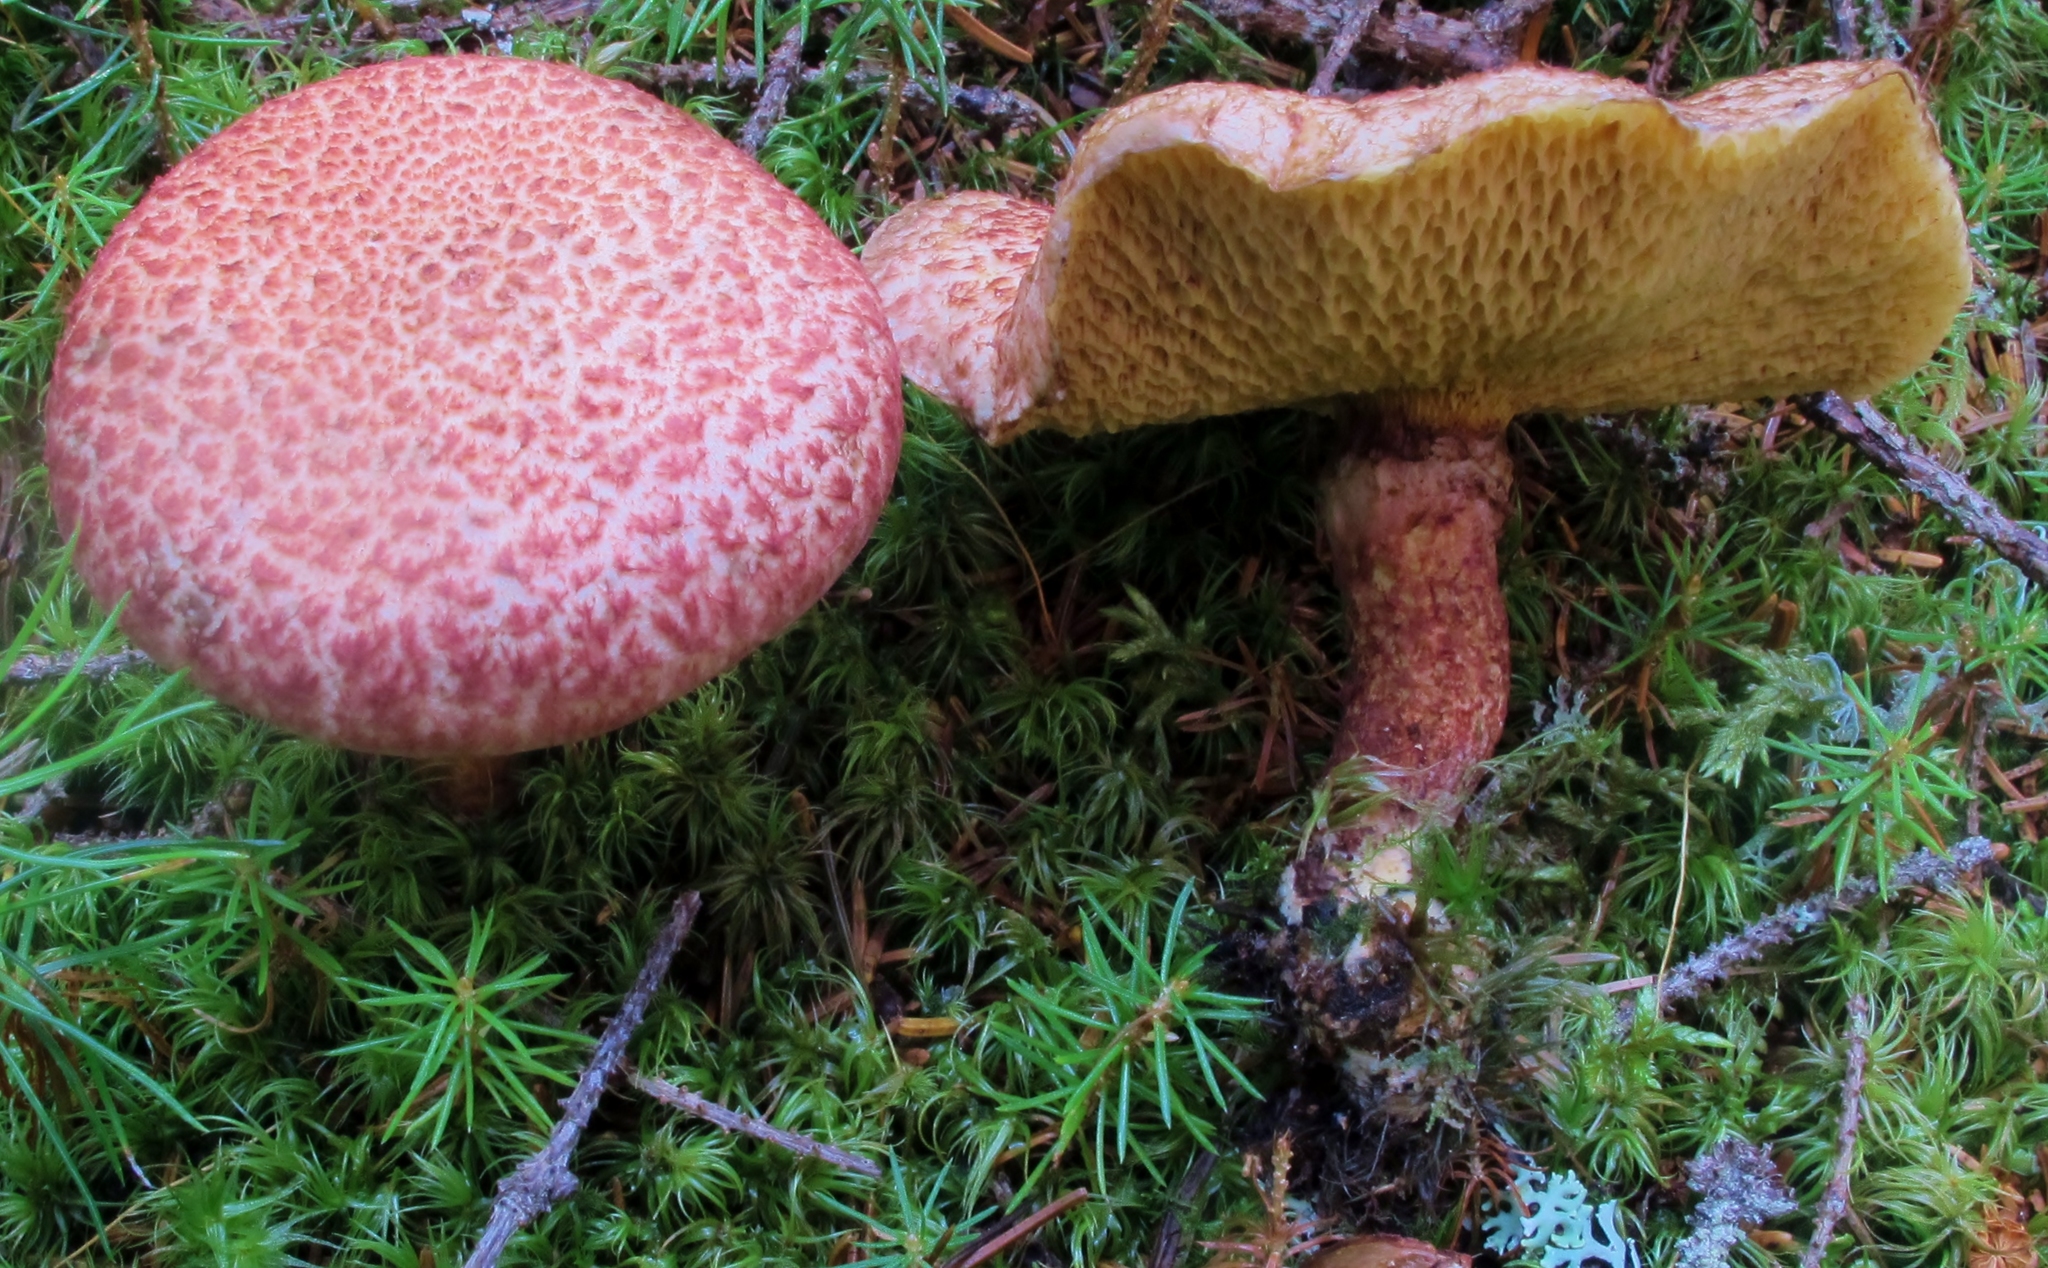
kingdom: Fungi
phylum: Basidiomycota
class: Agaricomycetes
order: Boletales
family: Suillaceae
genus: Suillus
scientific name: Suillus spraguei
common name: Painted suillus
